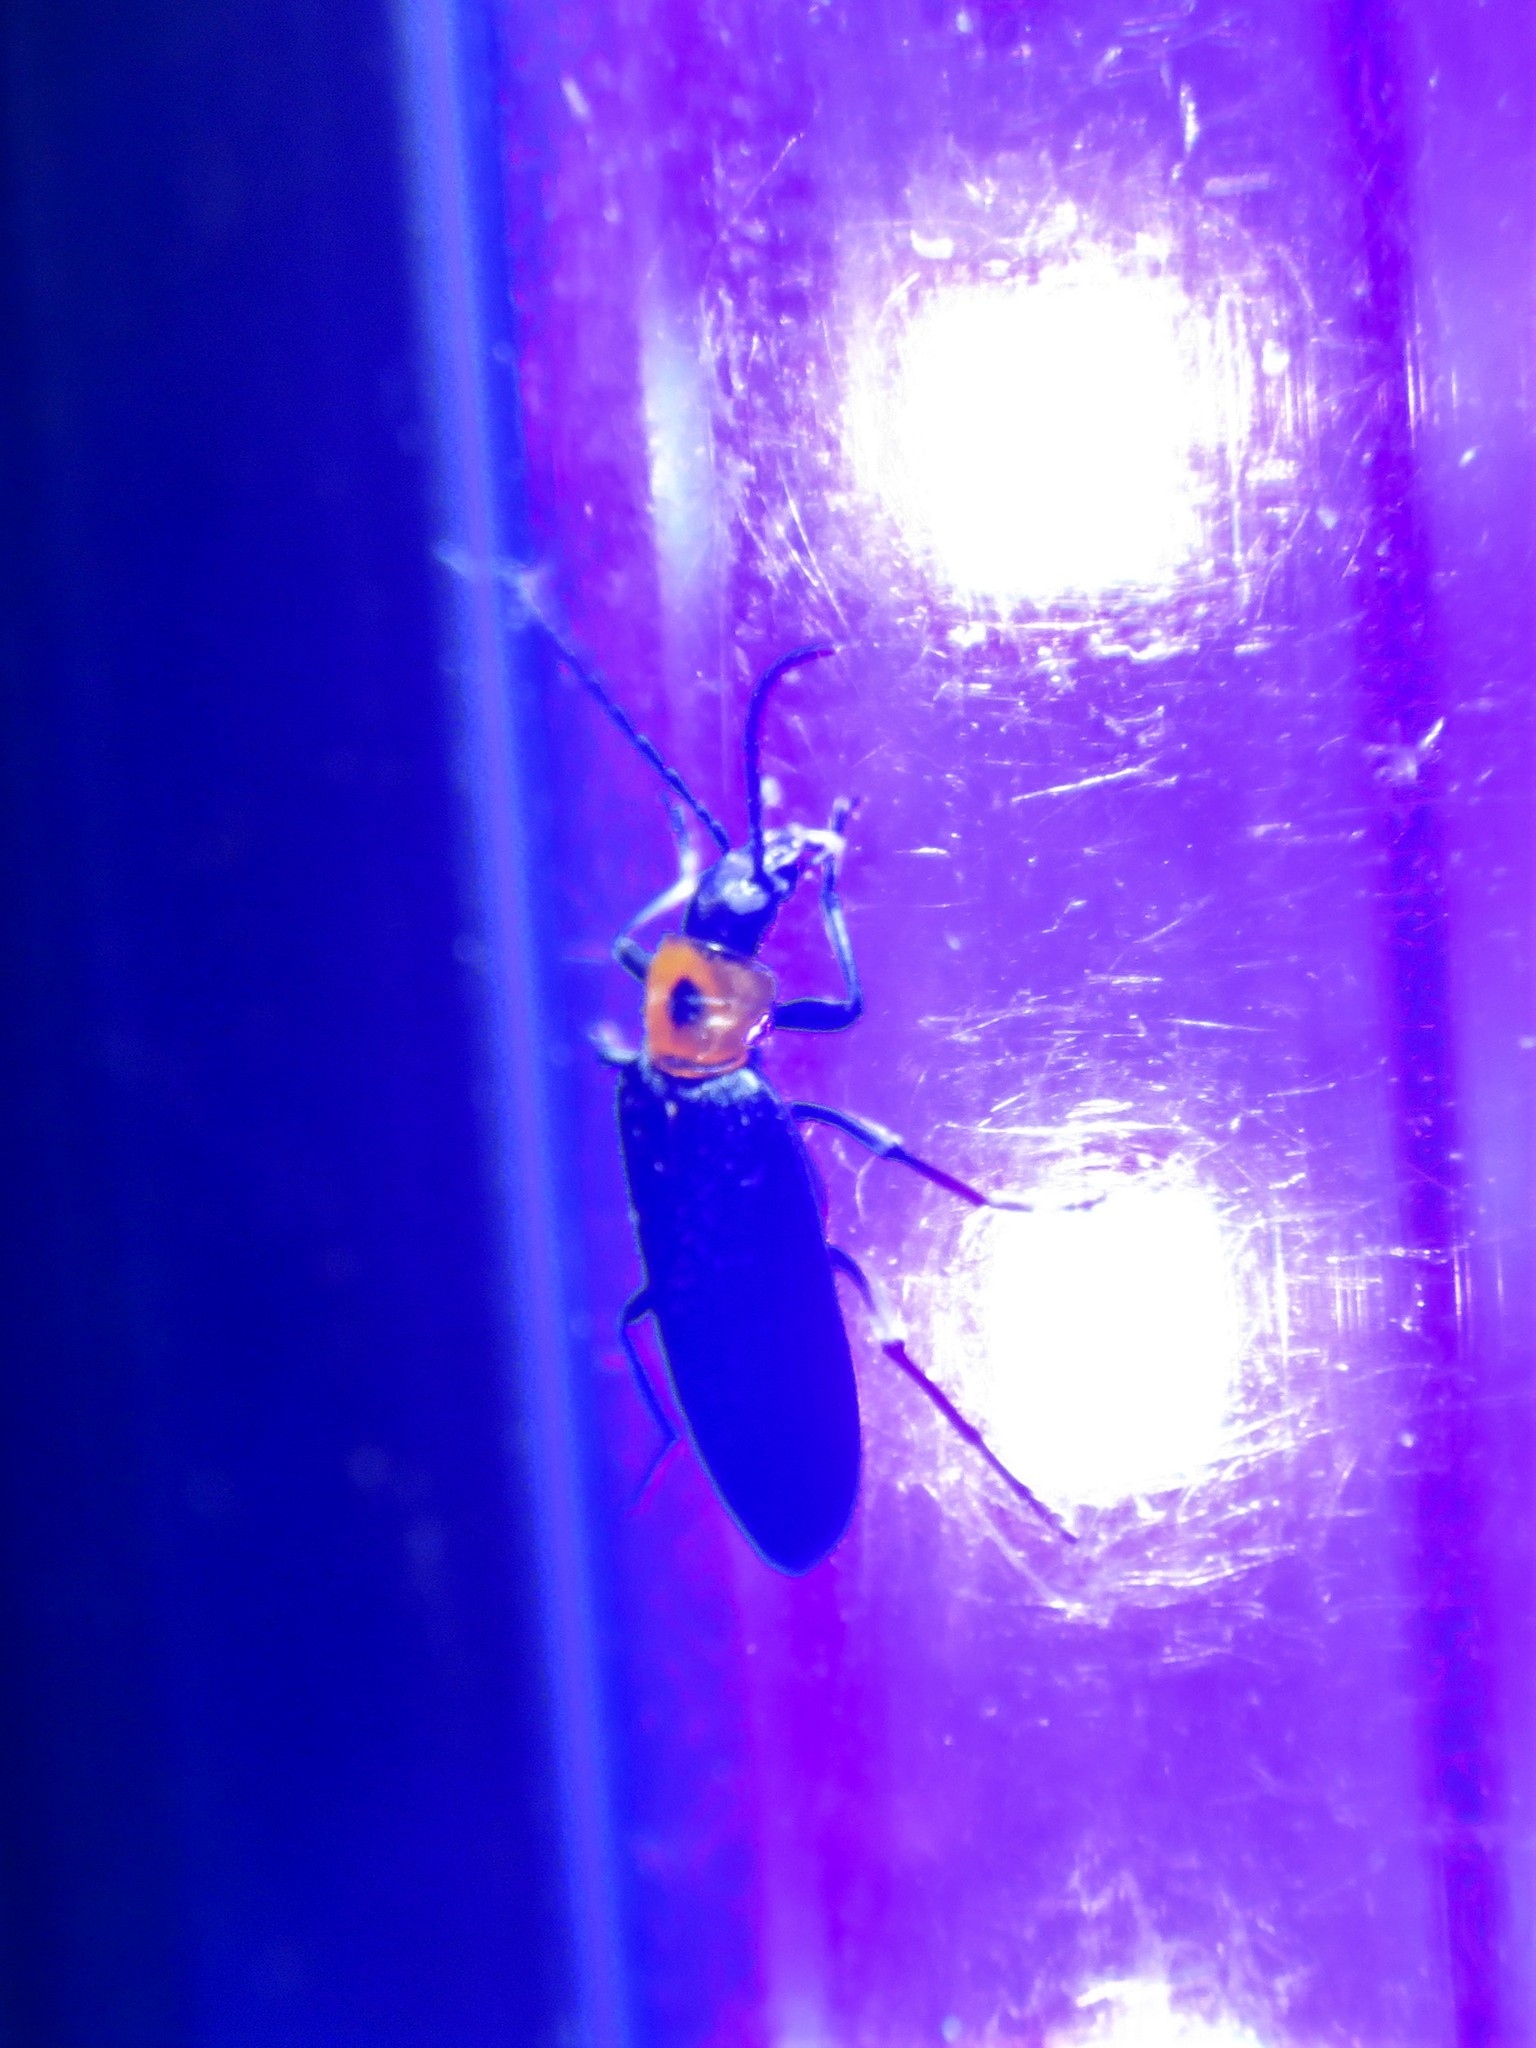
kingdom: Animalia
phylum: Arthropoda
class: Insecta
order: Coleoptera
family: Oedemeridae
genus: Ischnomera
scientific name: Ischnomera
